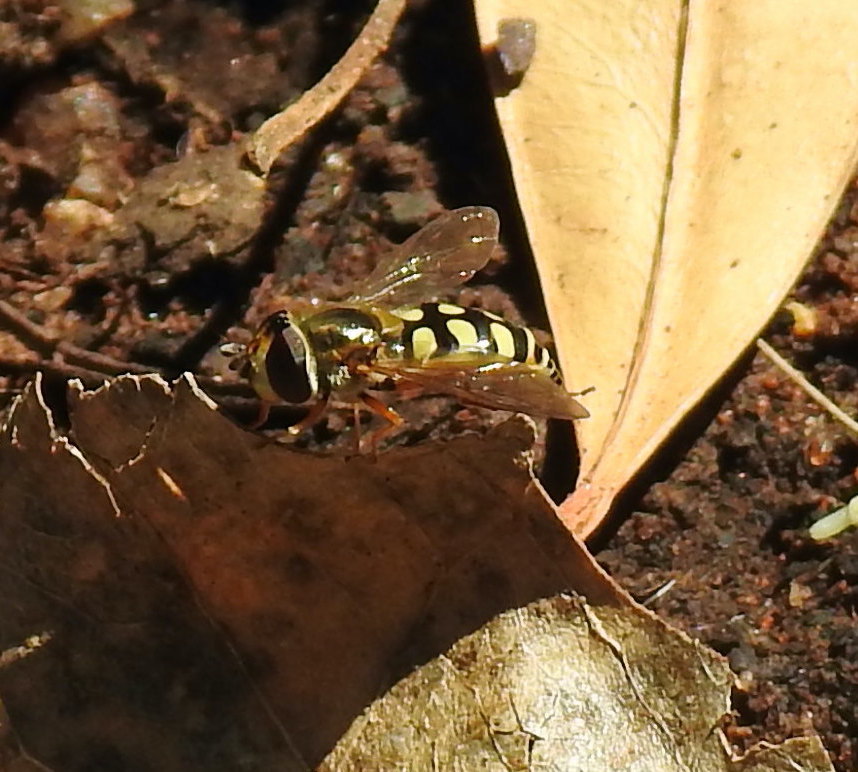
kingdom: Animalia
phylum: Arthropoda
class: Insecta
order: Diptera
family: Syrphidae
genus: Eupeodes
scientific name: Eupeodes corollae
